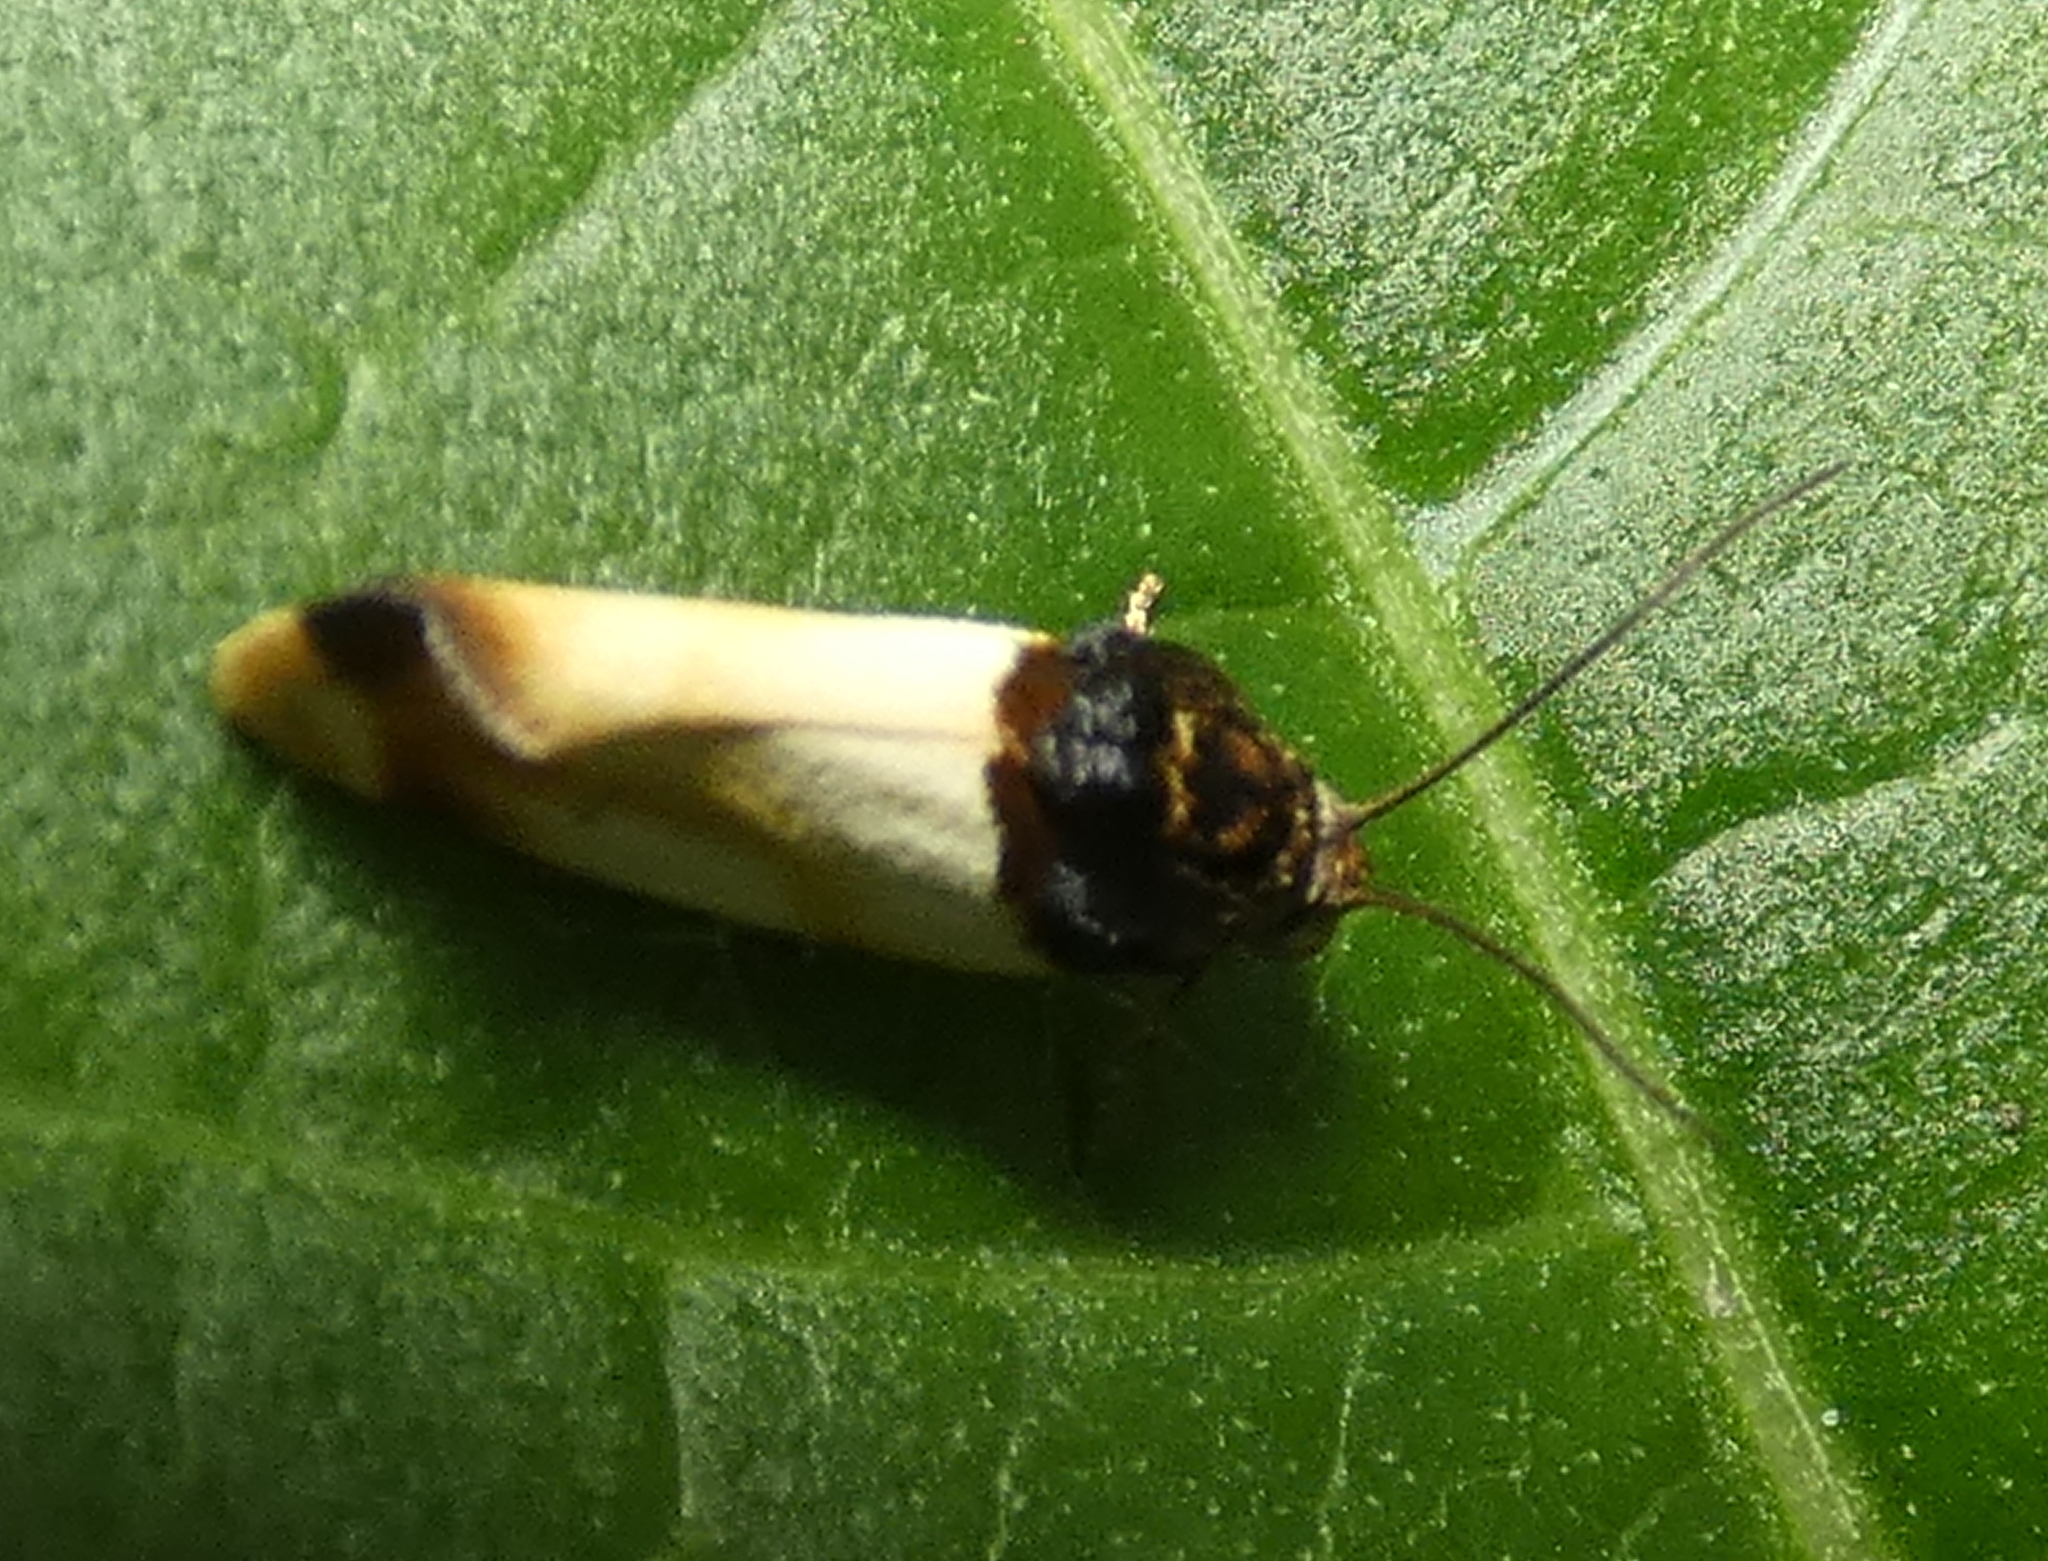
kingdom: Animalia
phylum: Arthropoda
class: Insecta
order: Lepidoptera
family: Noctuidae
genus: Spragueia
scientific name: Spragueia apicalis
